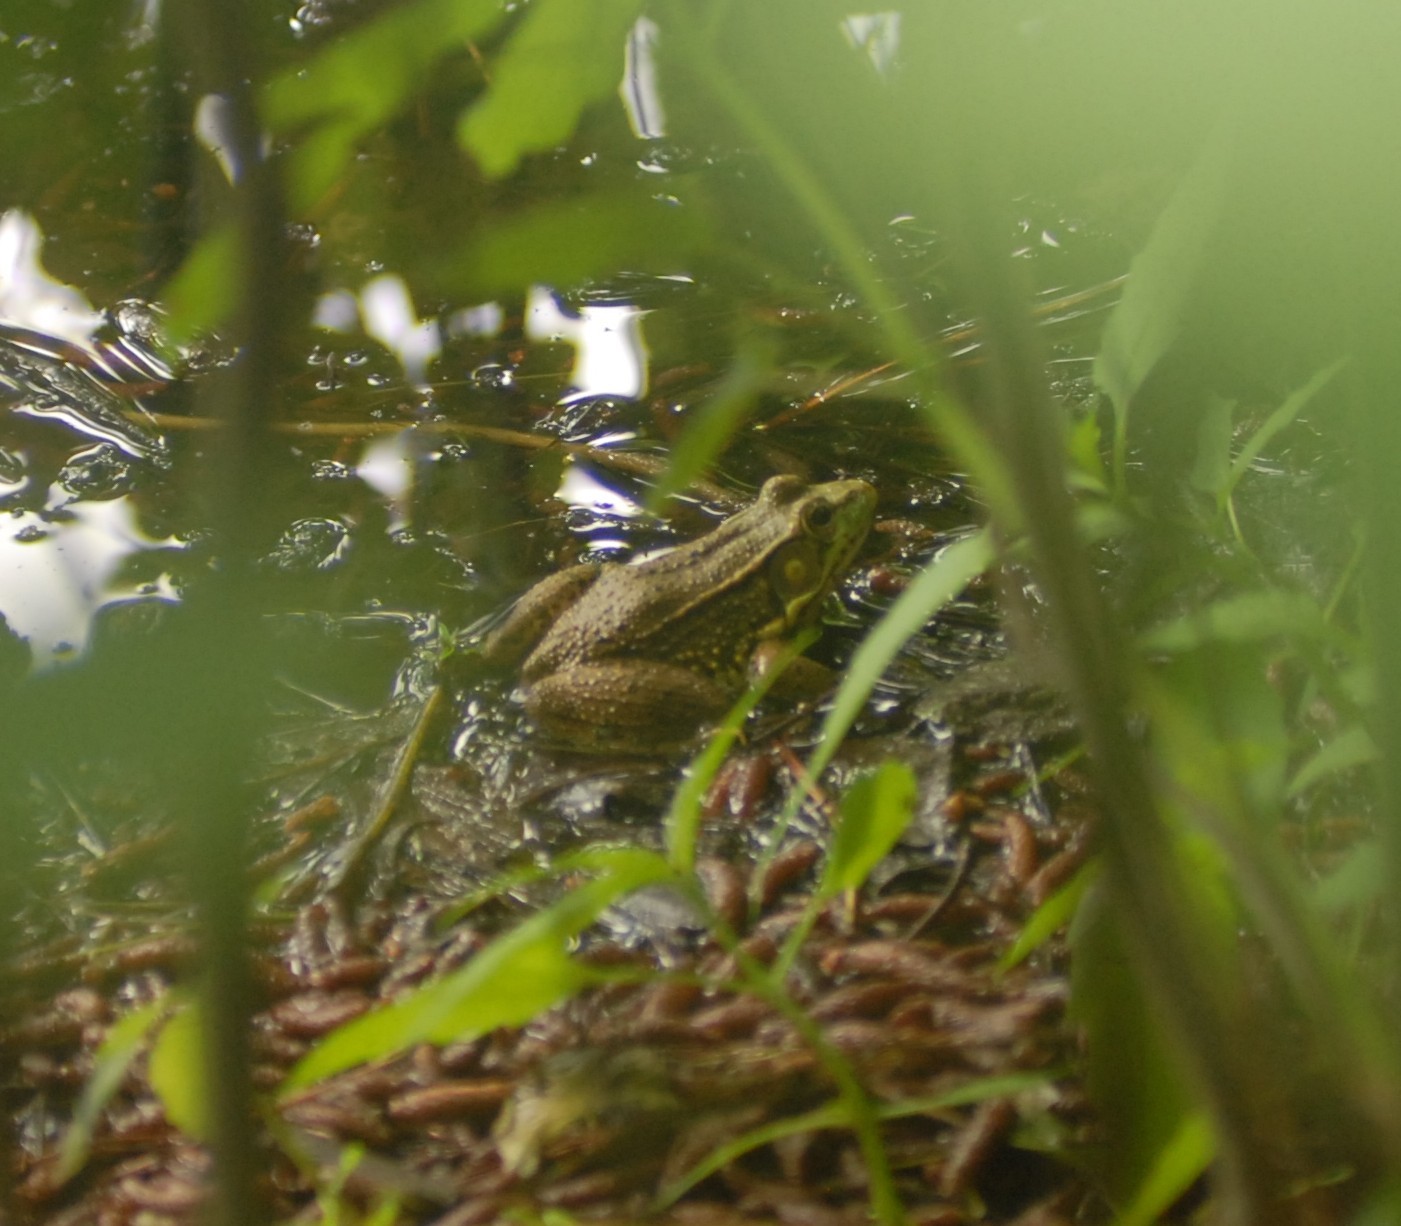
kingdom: Animalia
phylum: Chordata
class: Amphibia
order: Anura
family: Ranidae
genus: Lithobates
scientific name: Lithobates clamitans
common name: Green frog
